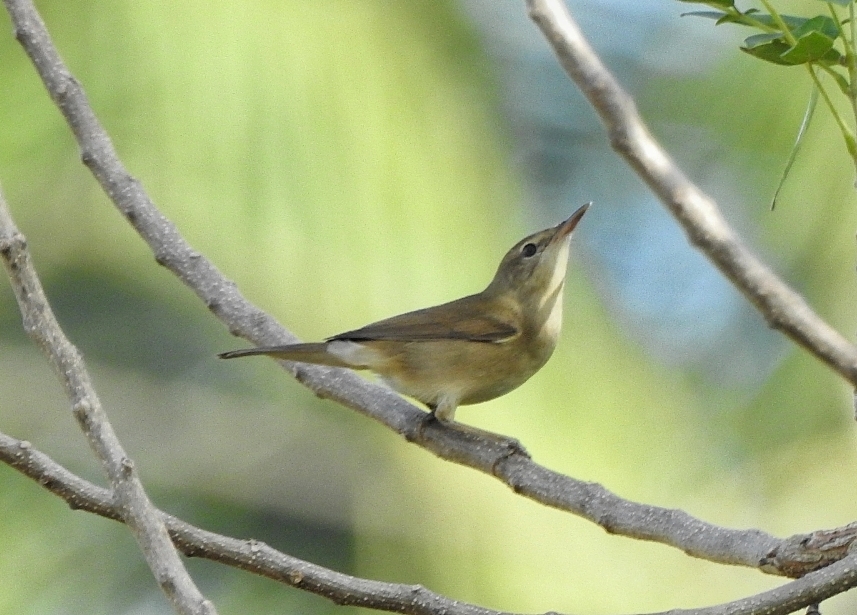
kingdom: Animalia
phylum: Chordata
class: Aves
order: Passeriformes
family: Acrocephalidae
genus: Acrocephalus
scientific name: Acrocephalus dumetorum
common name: Blyth's reed warbler
